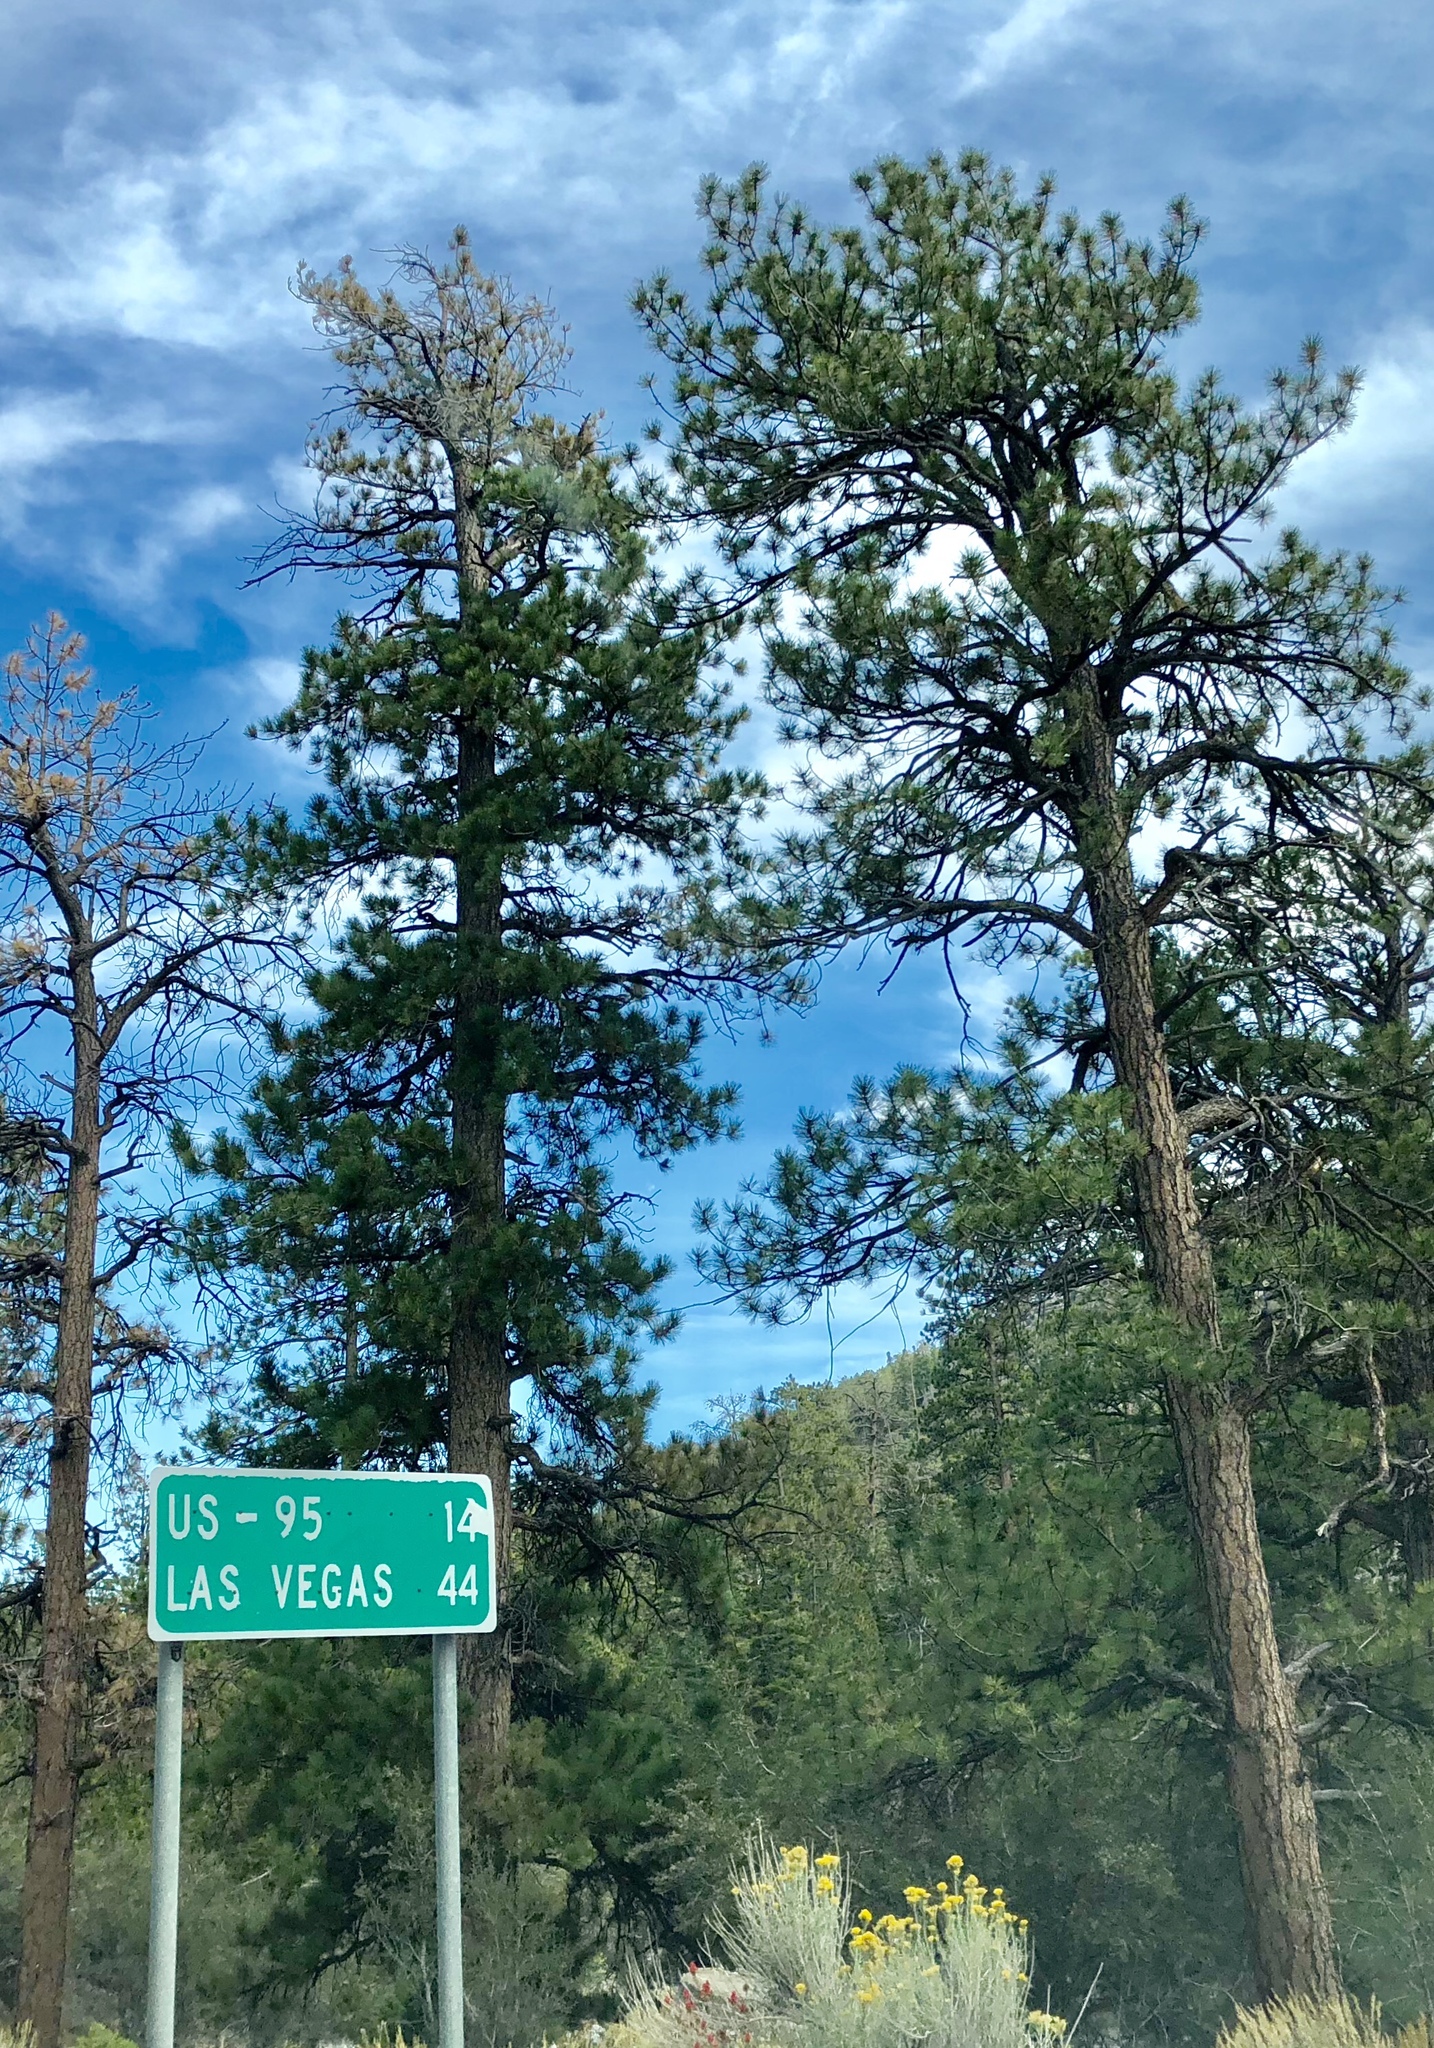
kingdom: Plantae
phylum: Tracheophyta
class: Pinopsida
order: Pinales
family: Pinaceae
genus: Pinus
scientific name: Pinus ponderosa
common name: Western yellow-pine
